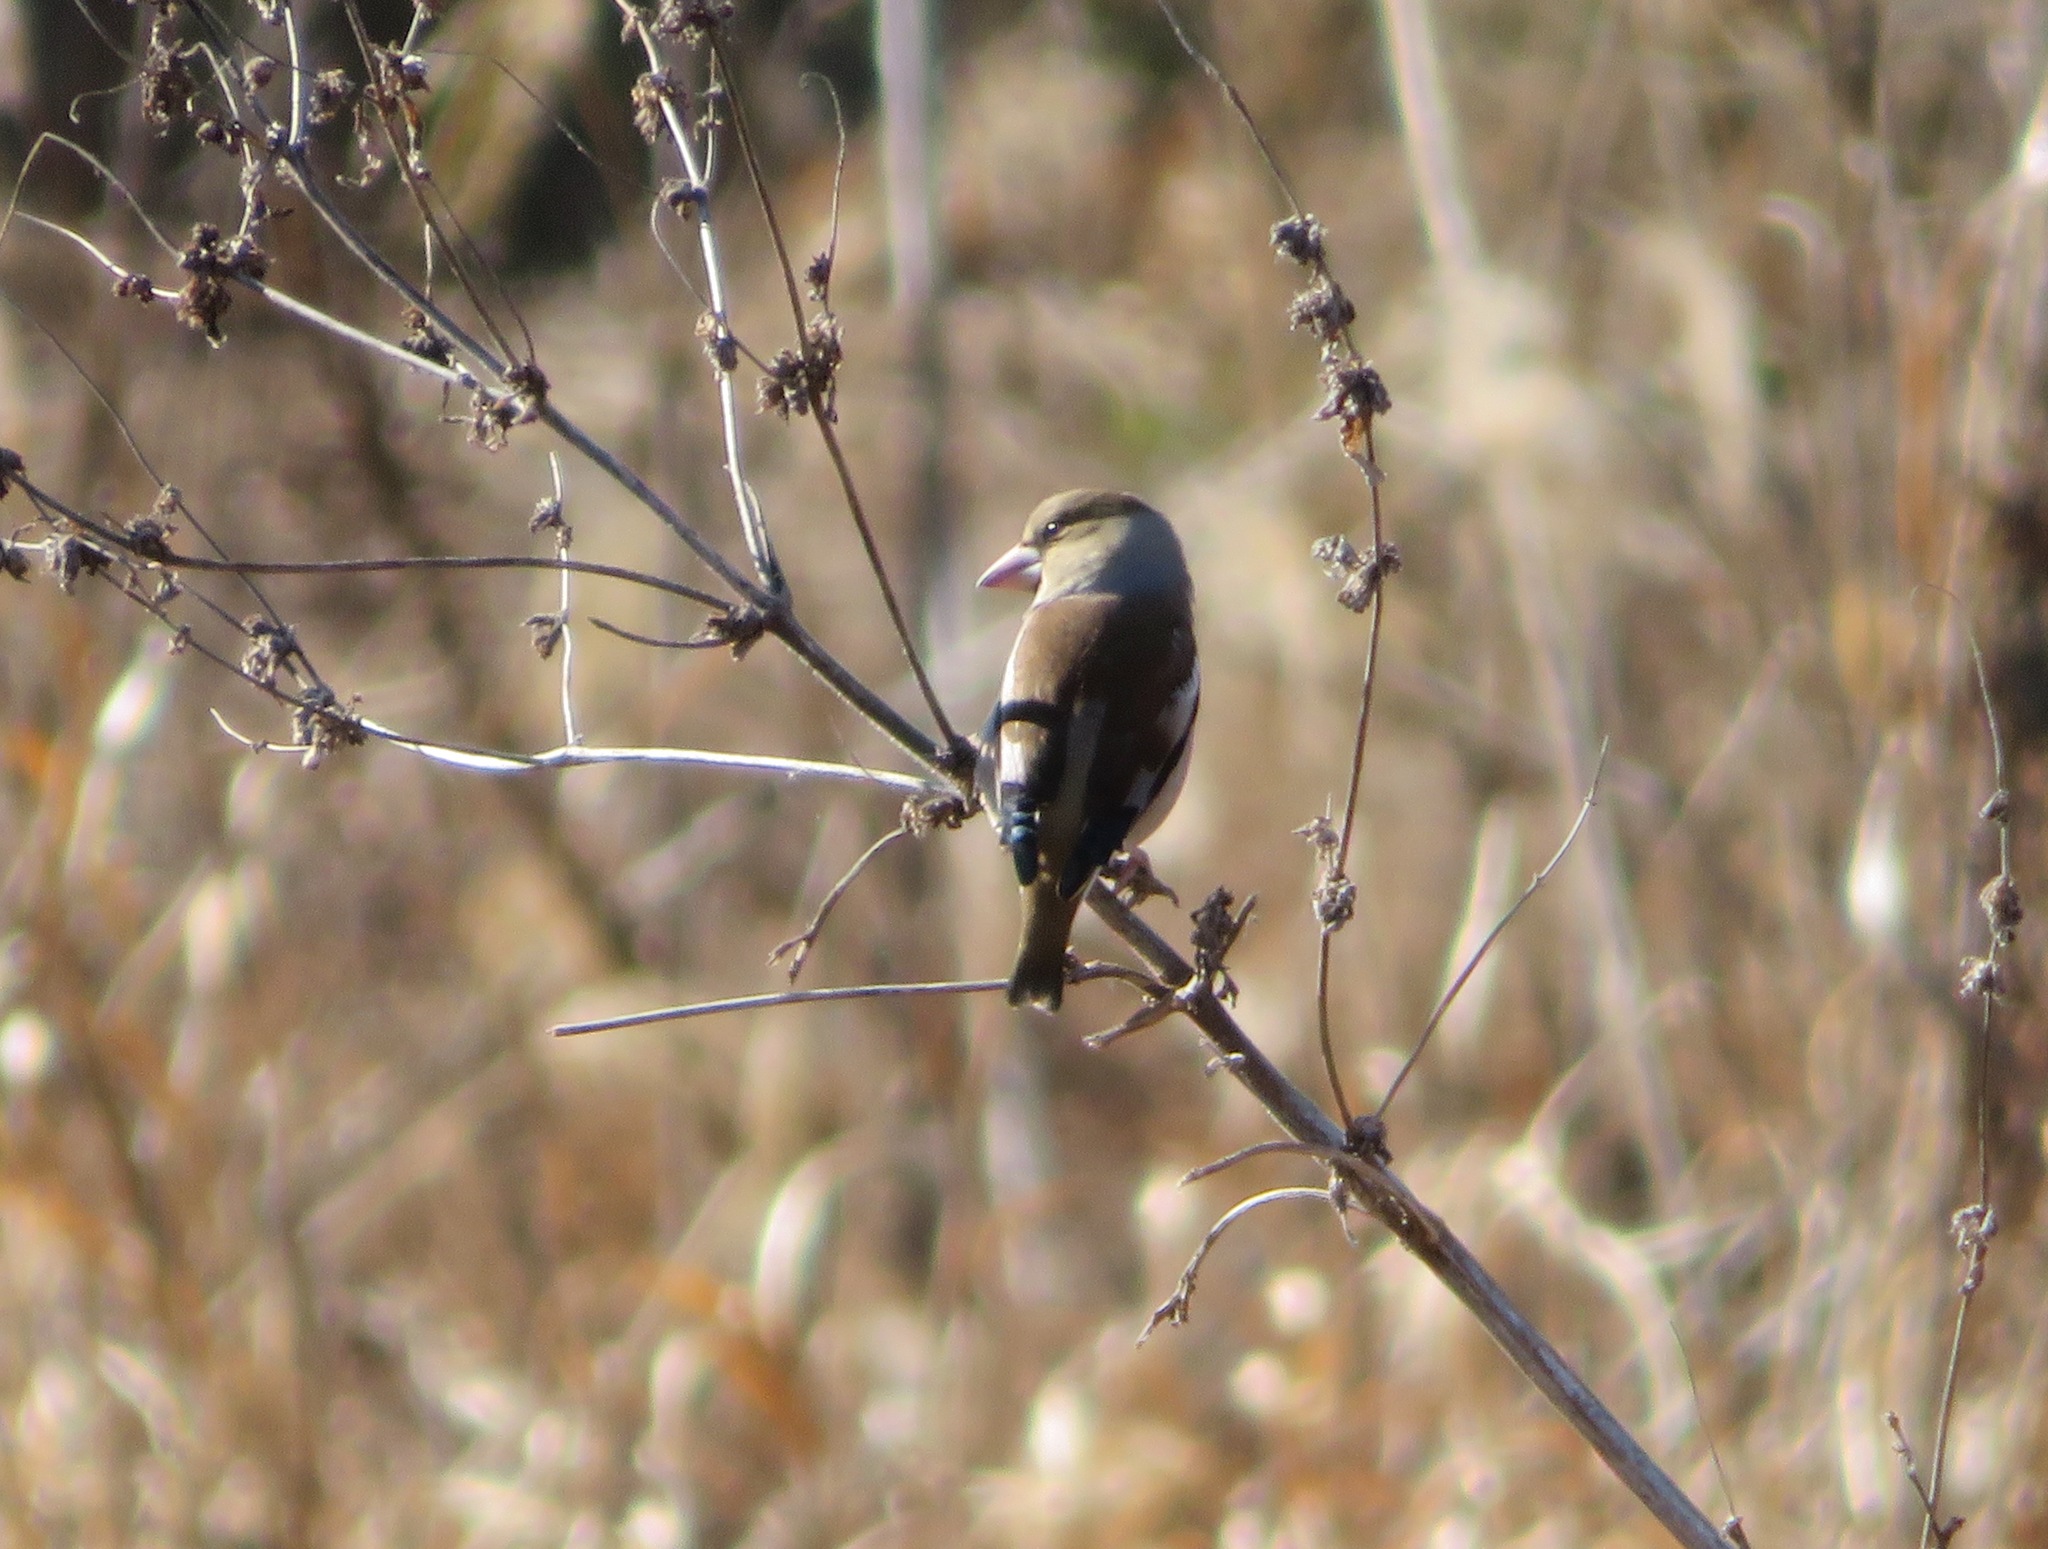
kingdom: Animalia
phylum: Chordata
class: Aves
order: Passeriformes
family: Fringillidae
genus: Coccothraustes
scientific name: Coccothraustes coccothraustes
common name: Hawfinch
